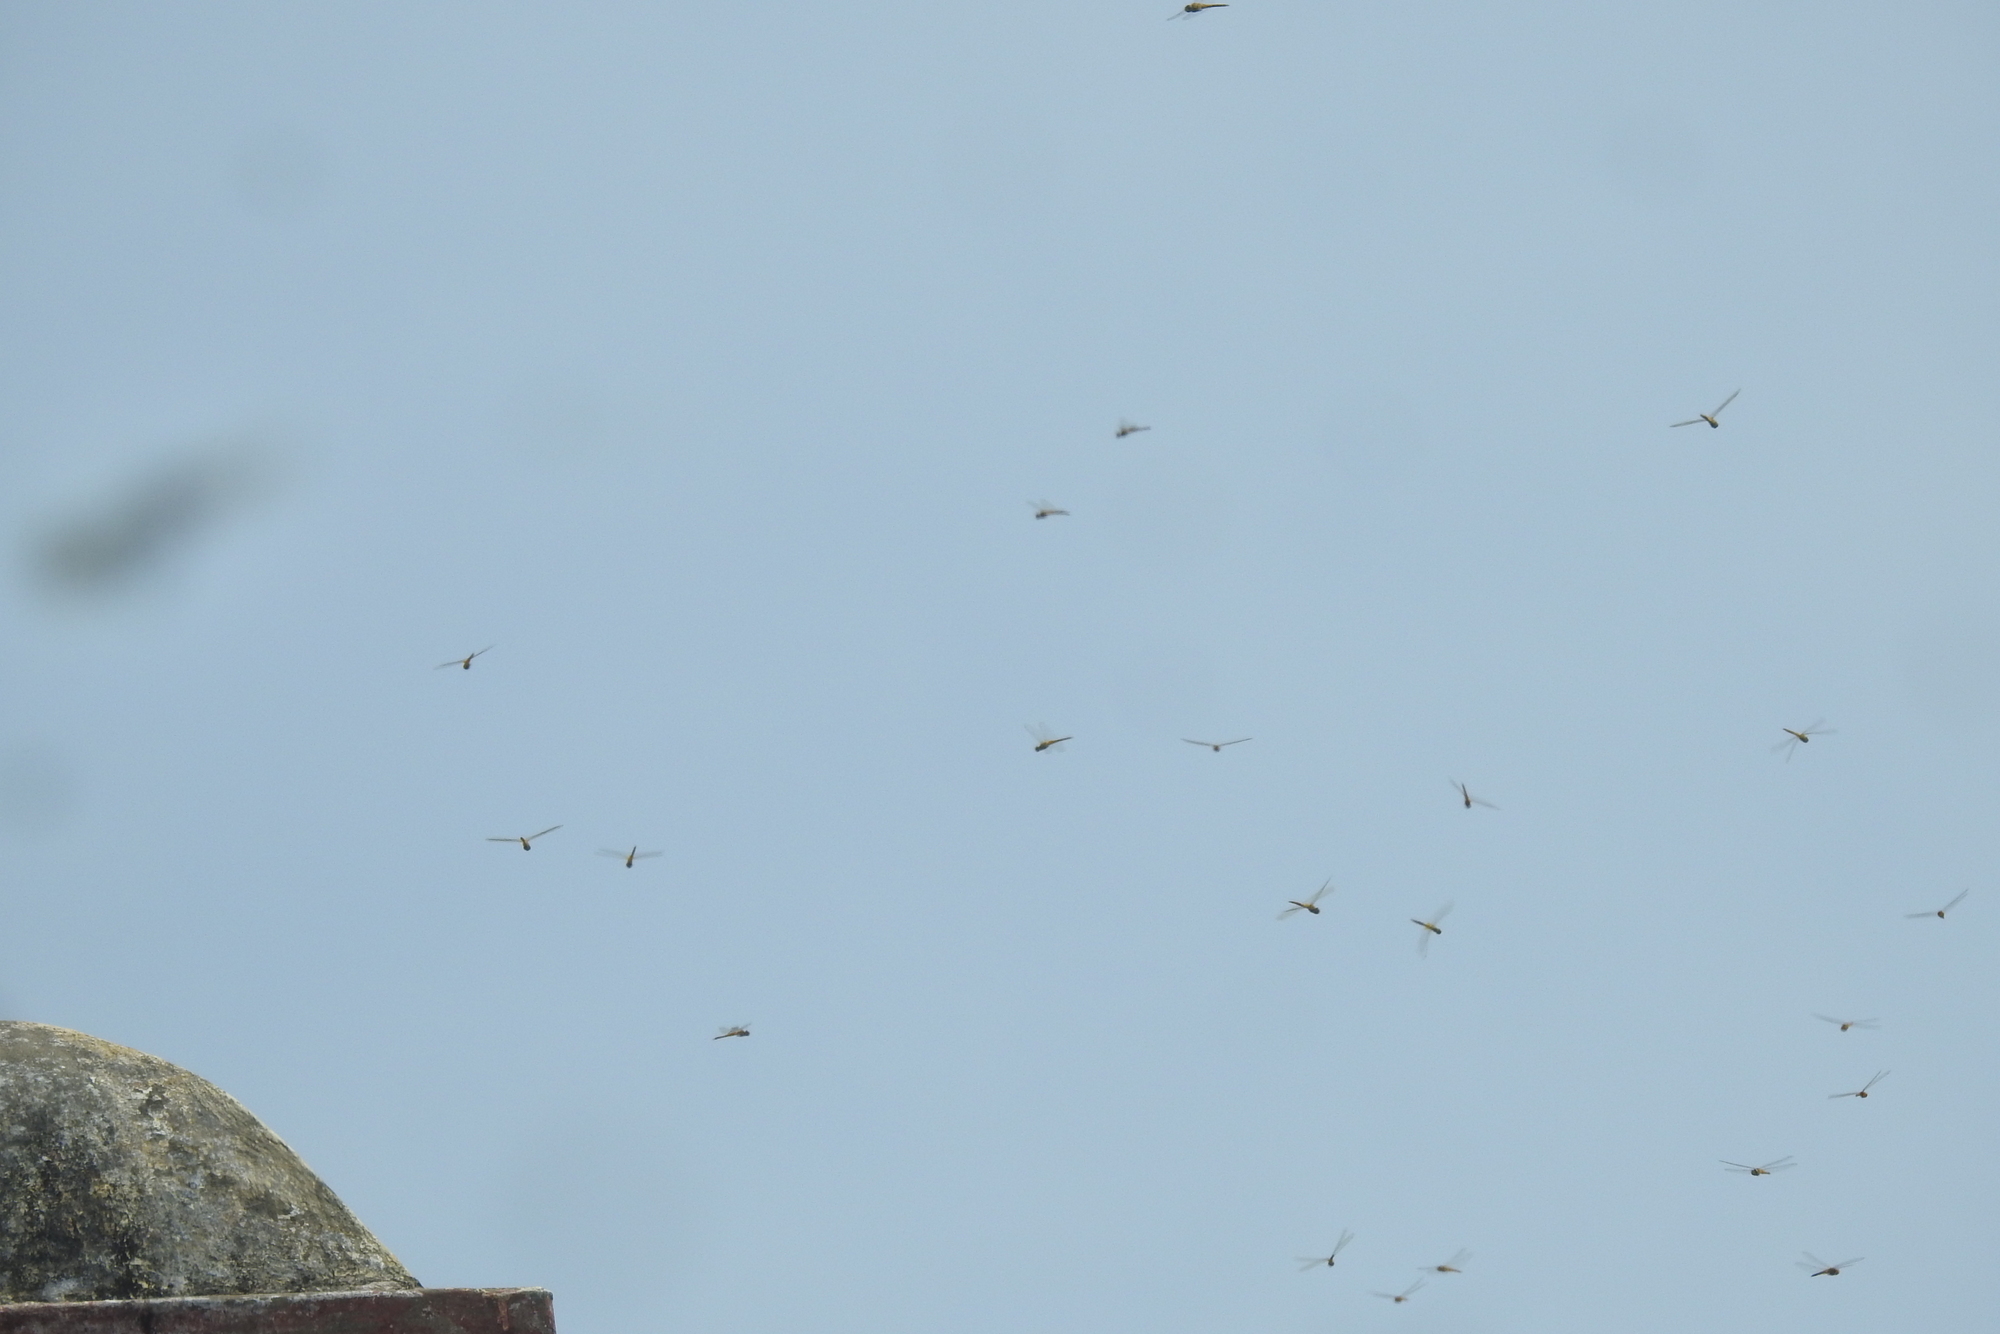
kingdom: Animalia
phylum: Arthropoda
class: Insecta
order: Odonata
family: Libellulidae
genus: Pantala
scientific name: Pantala flavescens
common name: Wandering glider
